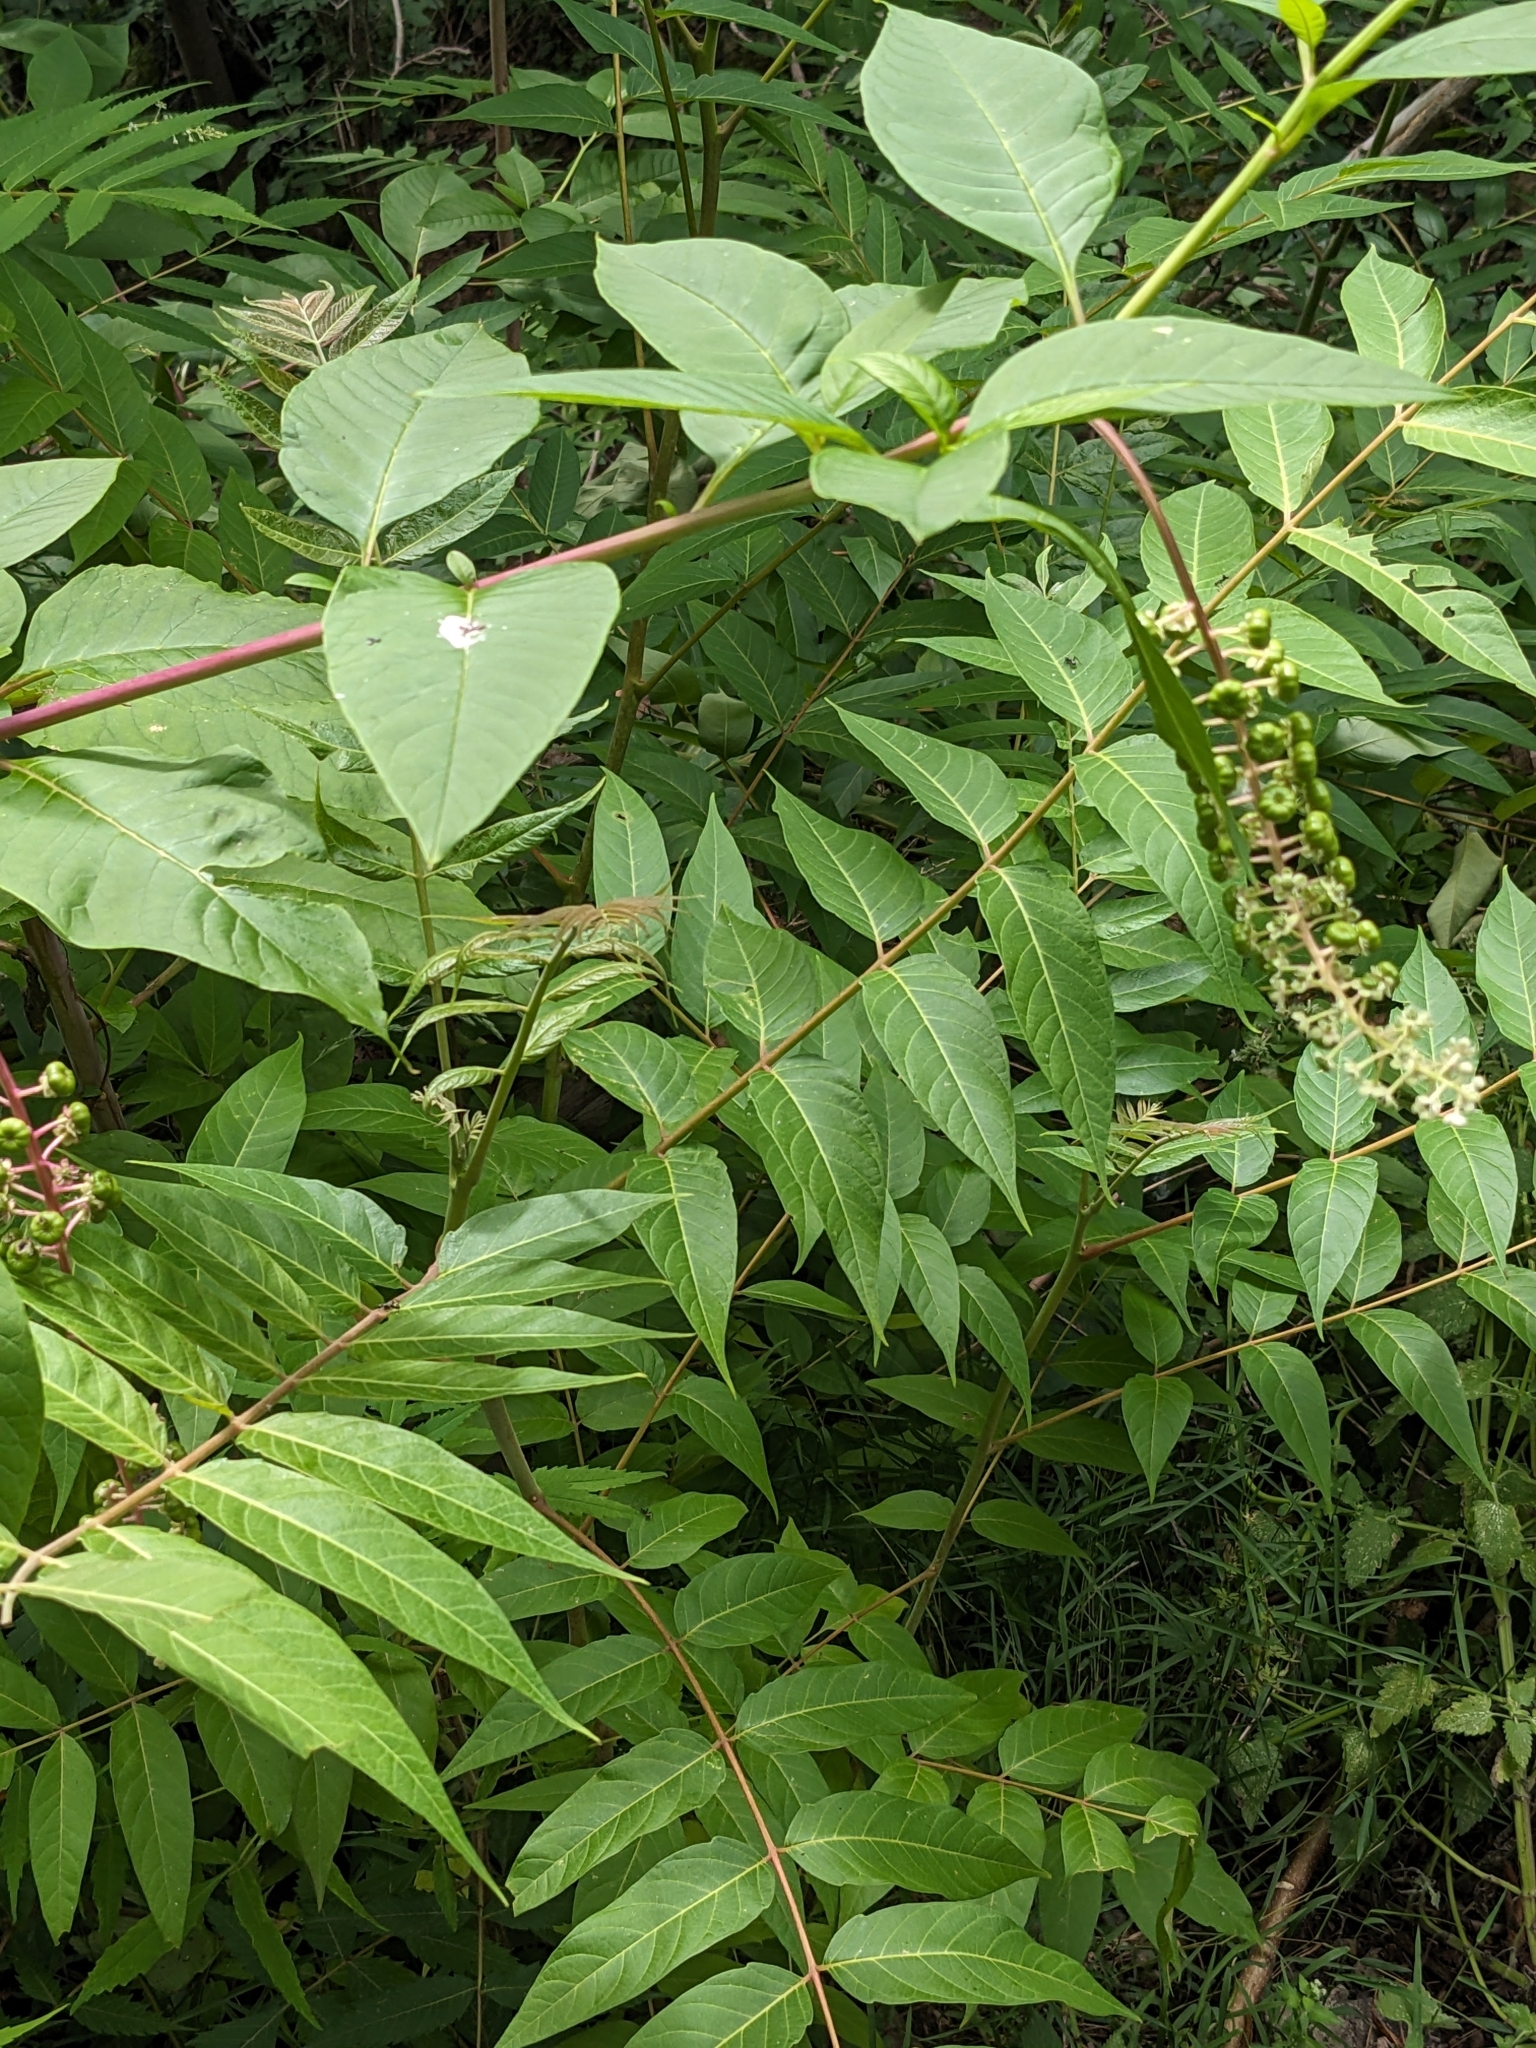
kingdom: Plantae
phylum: Tracheophyta
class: Magnoliopsida
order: Caryophyllales
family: Phytolaccaceae
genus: Phytolacca
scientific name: Phytolacca americana
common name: American pokeweed
